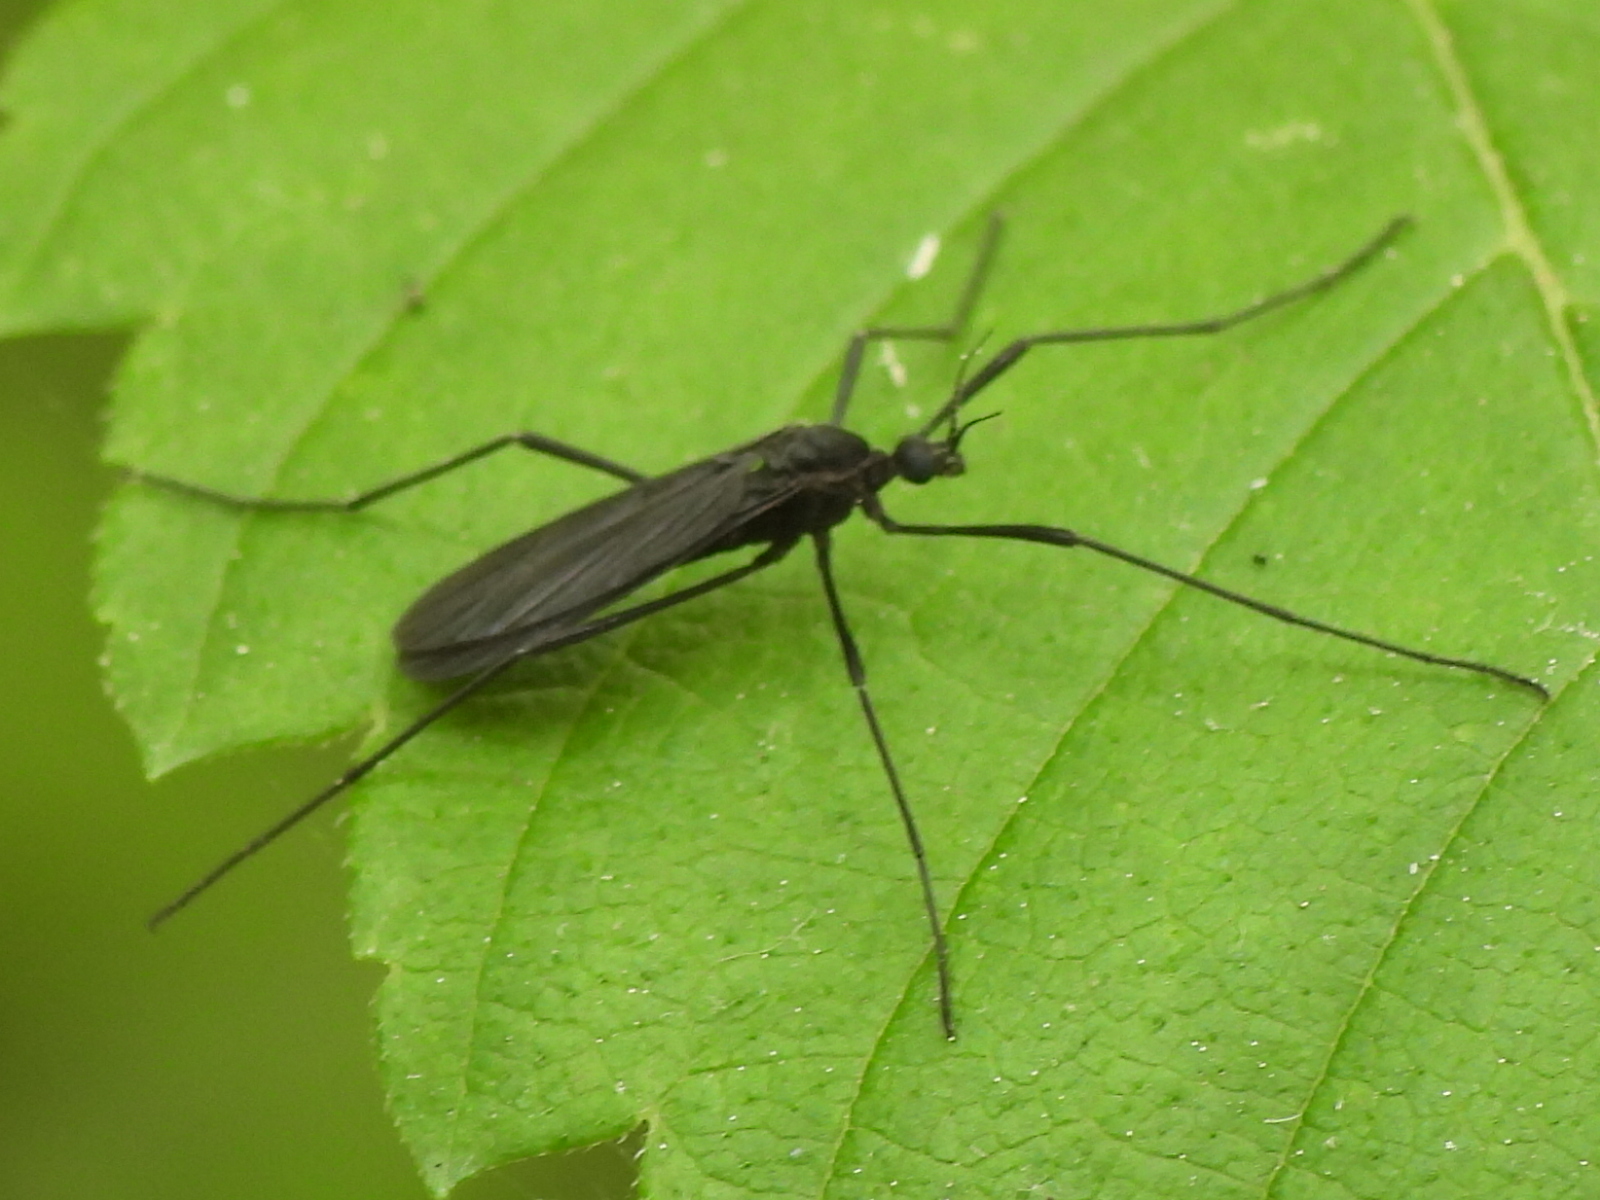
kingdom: Animalia
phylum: Arthropoda
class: Insecta
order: Diptera
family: Limoniidae
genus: Eugnophomyia
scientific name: Eugnophomyia luctuosa
